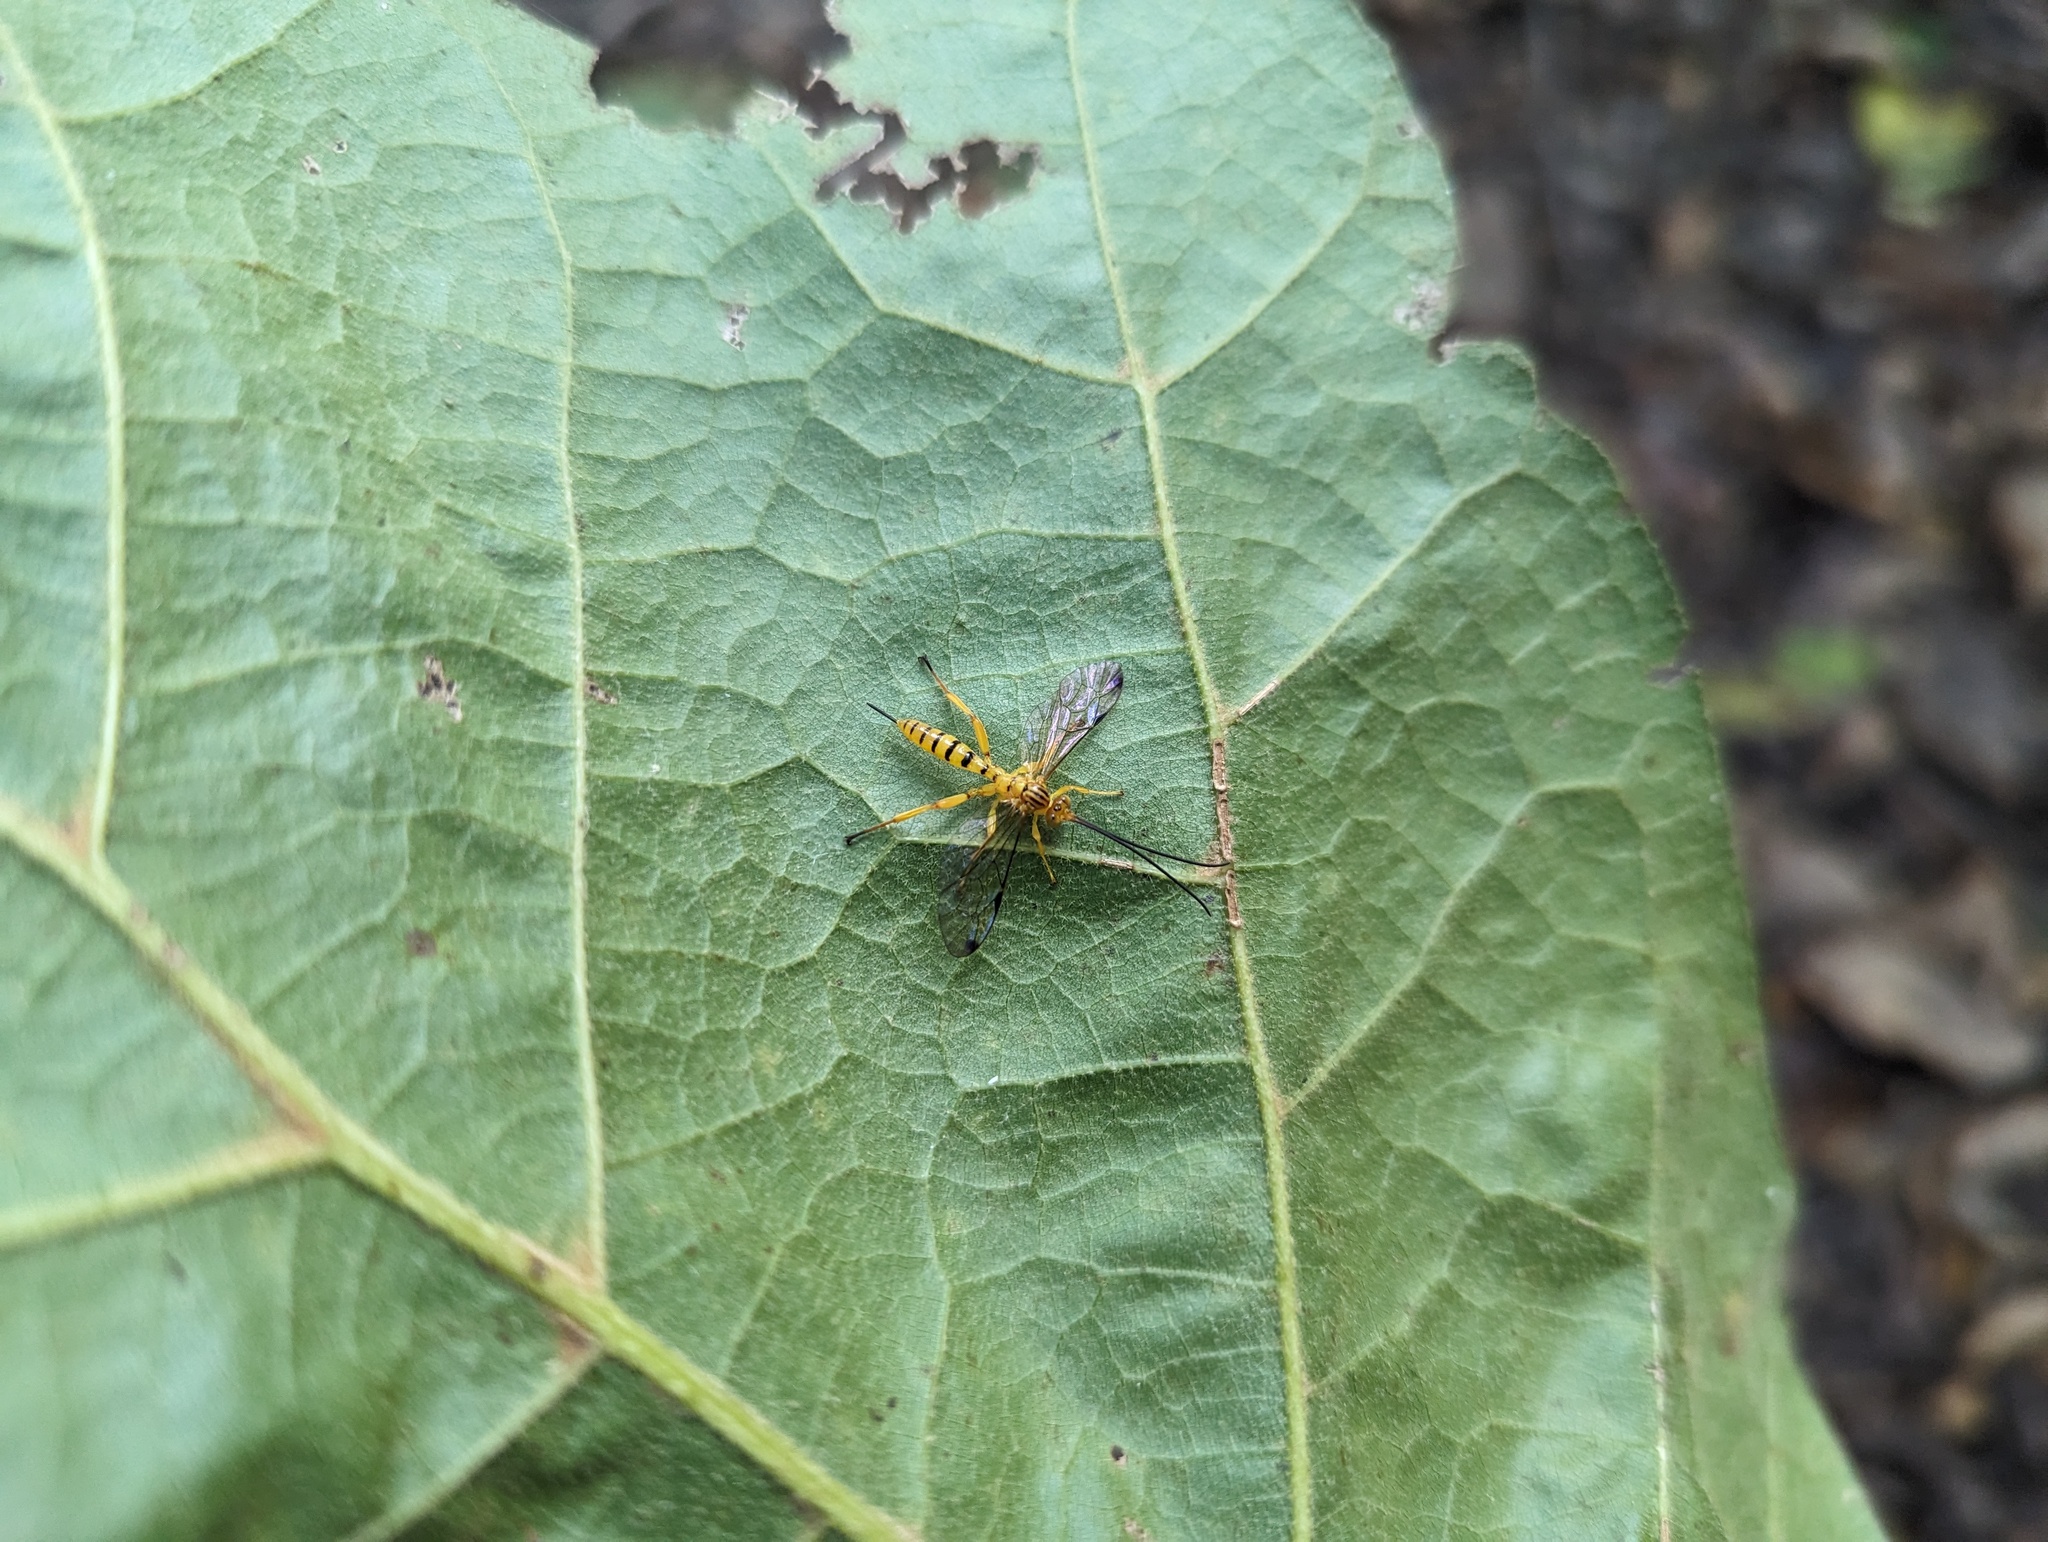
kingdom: Animalia
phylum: Arthropoda
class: Insecta
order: Hymenoptera
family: Ichneumonidae
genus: Neotheronia
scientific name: Neotheronia septemtrionalis
